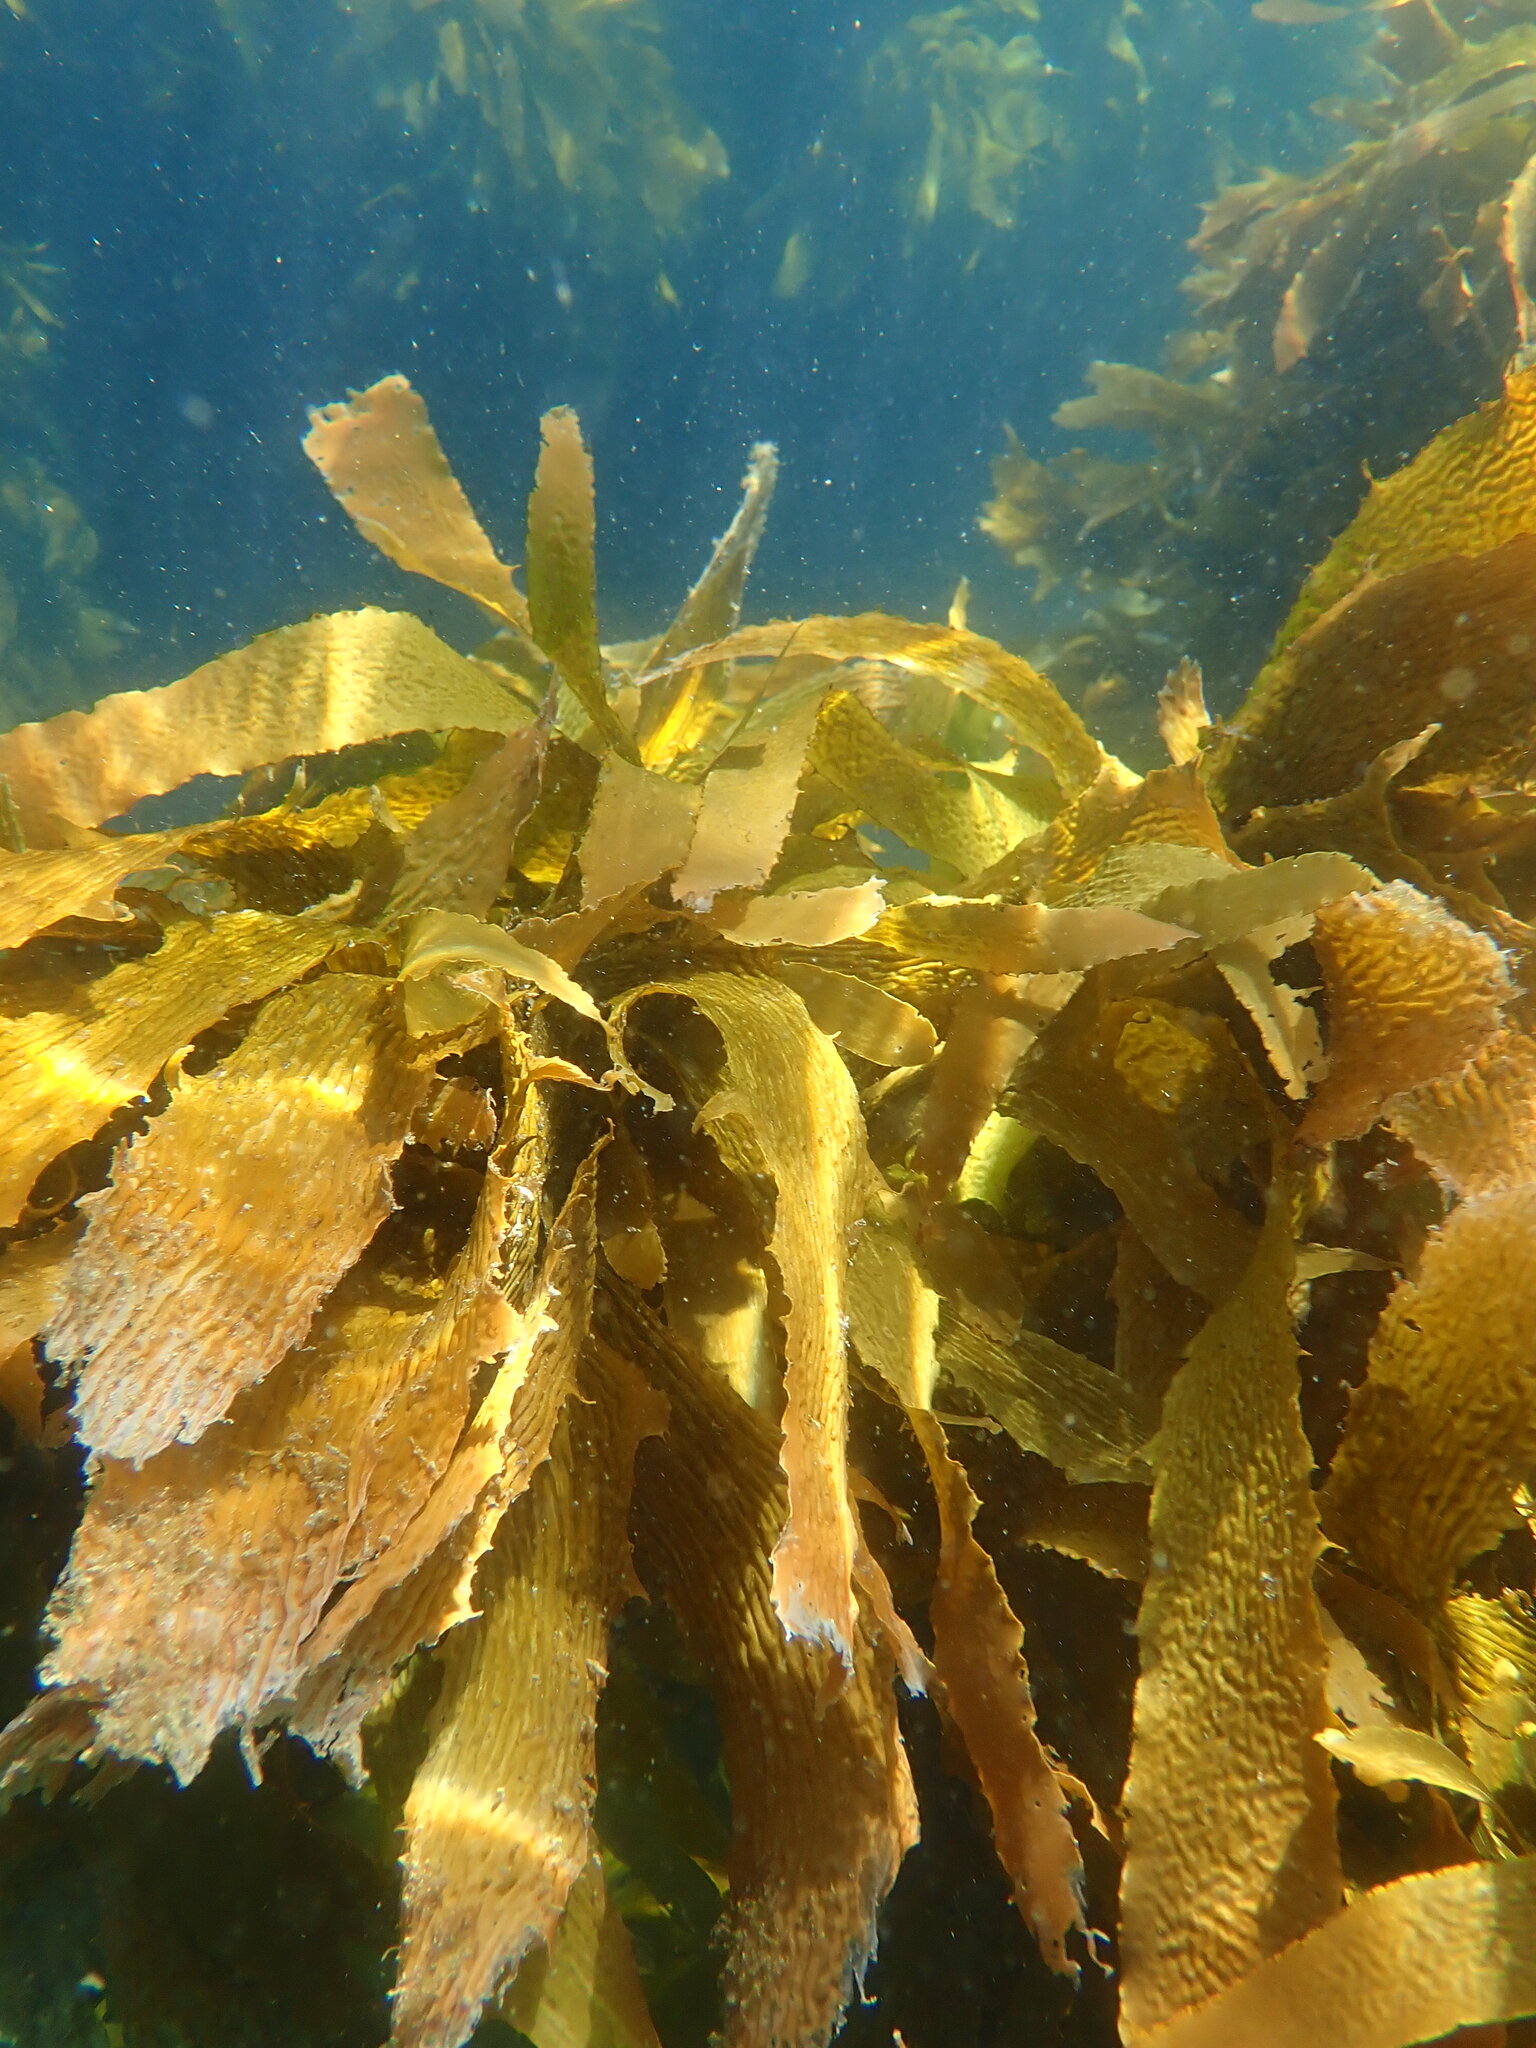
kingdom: Chromista
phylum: Ochrophyta
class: Phaeophyceae
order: Laminariales
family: Lessoniaceae
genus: Ecklonia
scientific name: Ecklonia radiata
